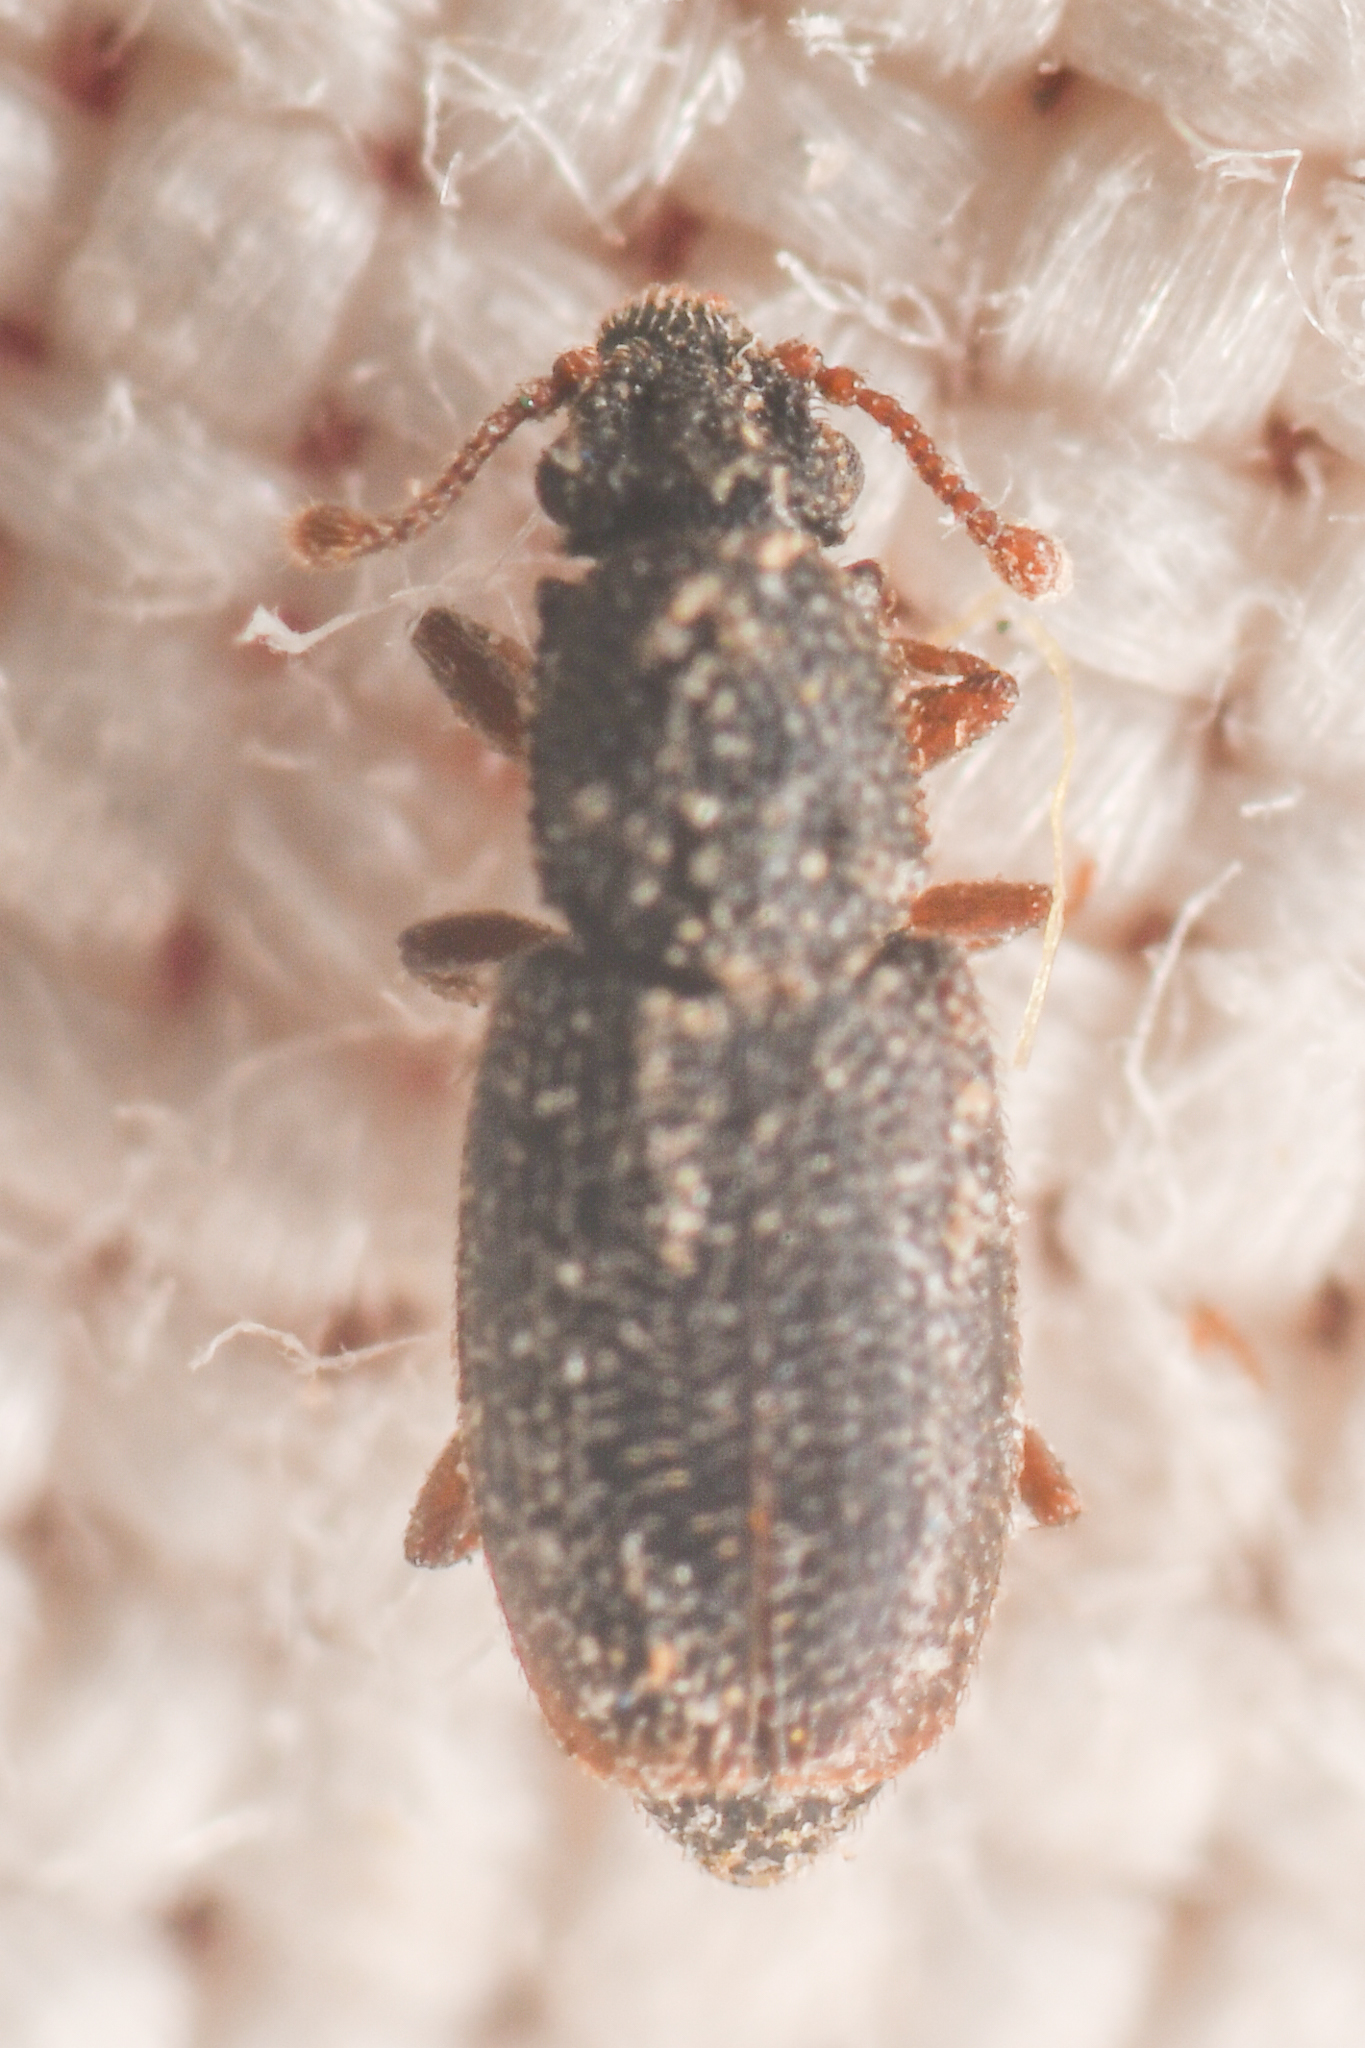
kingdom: Animalia
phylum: Arthropoda
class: Insecta
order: Coleoptera
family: Monotomidae
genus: Monotoma
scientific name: Monotoma picipes
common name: Root-eating beetle
